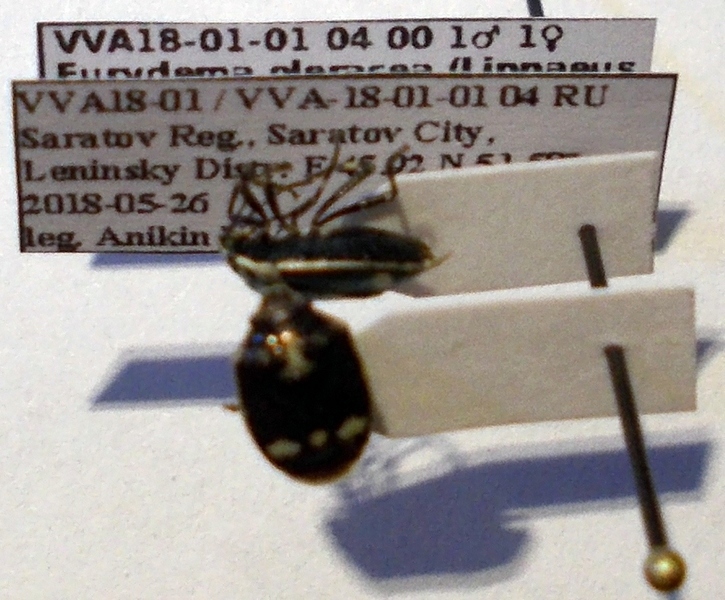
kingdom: Animalia
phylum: Arthropoda
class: Insecta
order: Hemiptera
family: Pentatomidae
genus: Eurydema
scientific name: Eurydema oleracea
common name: Cabbage bug
